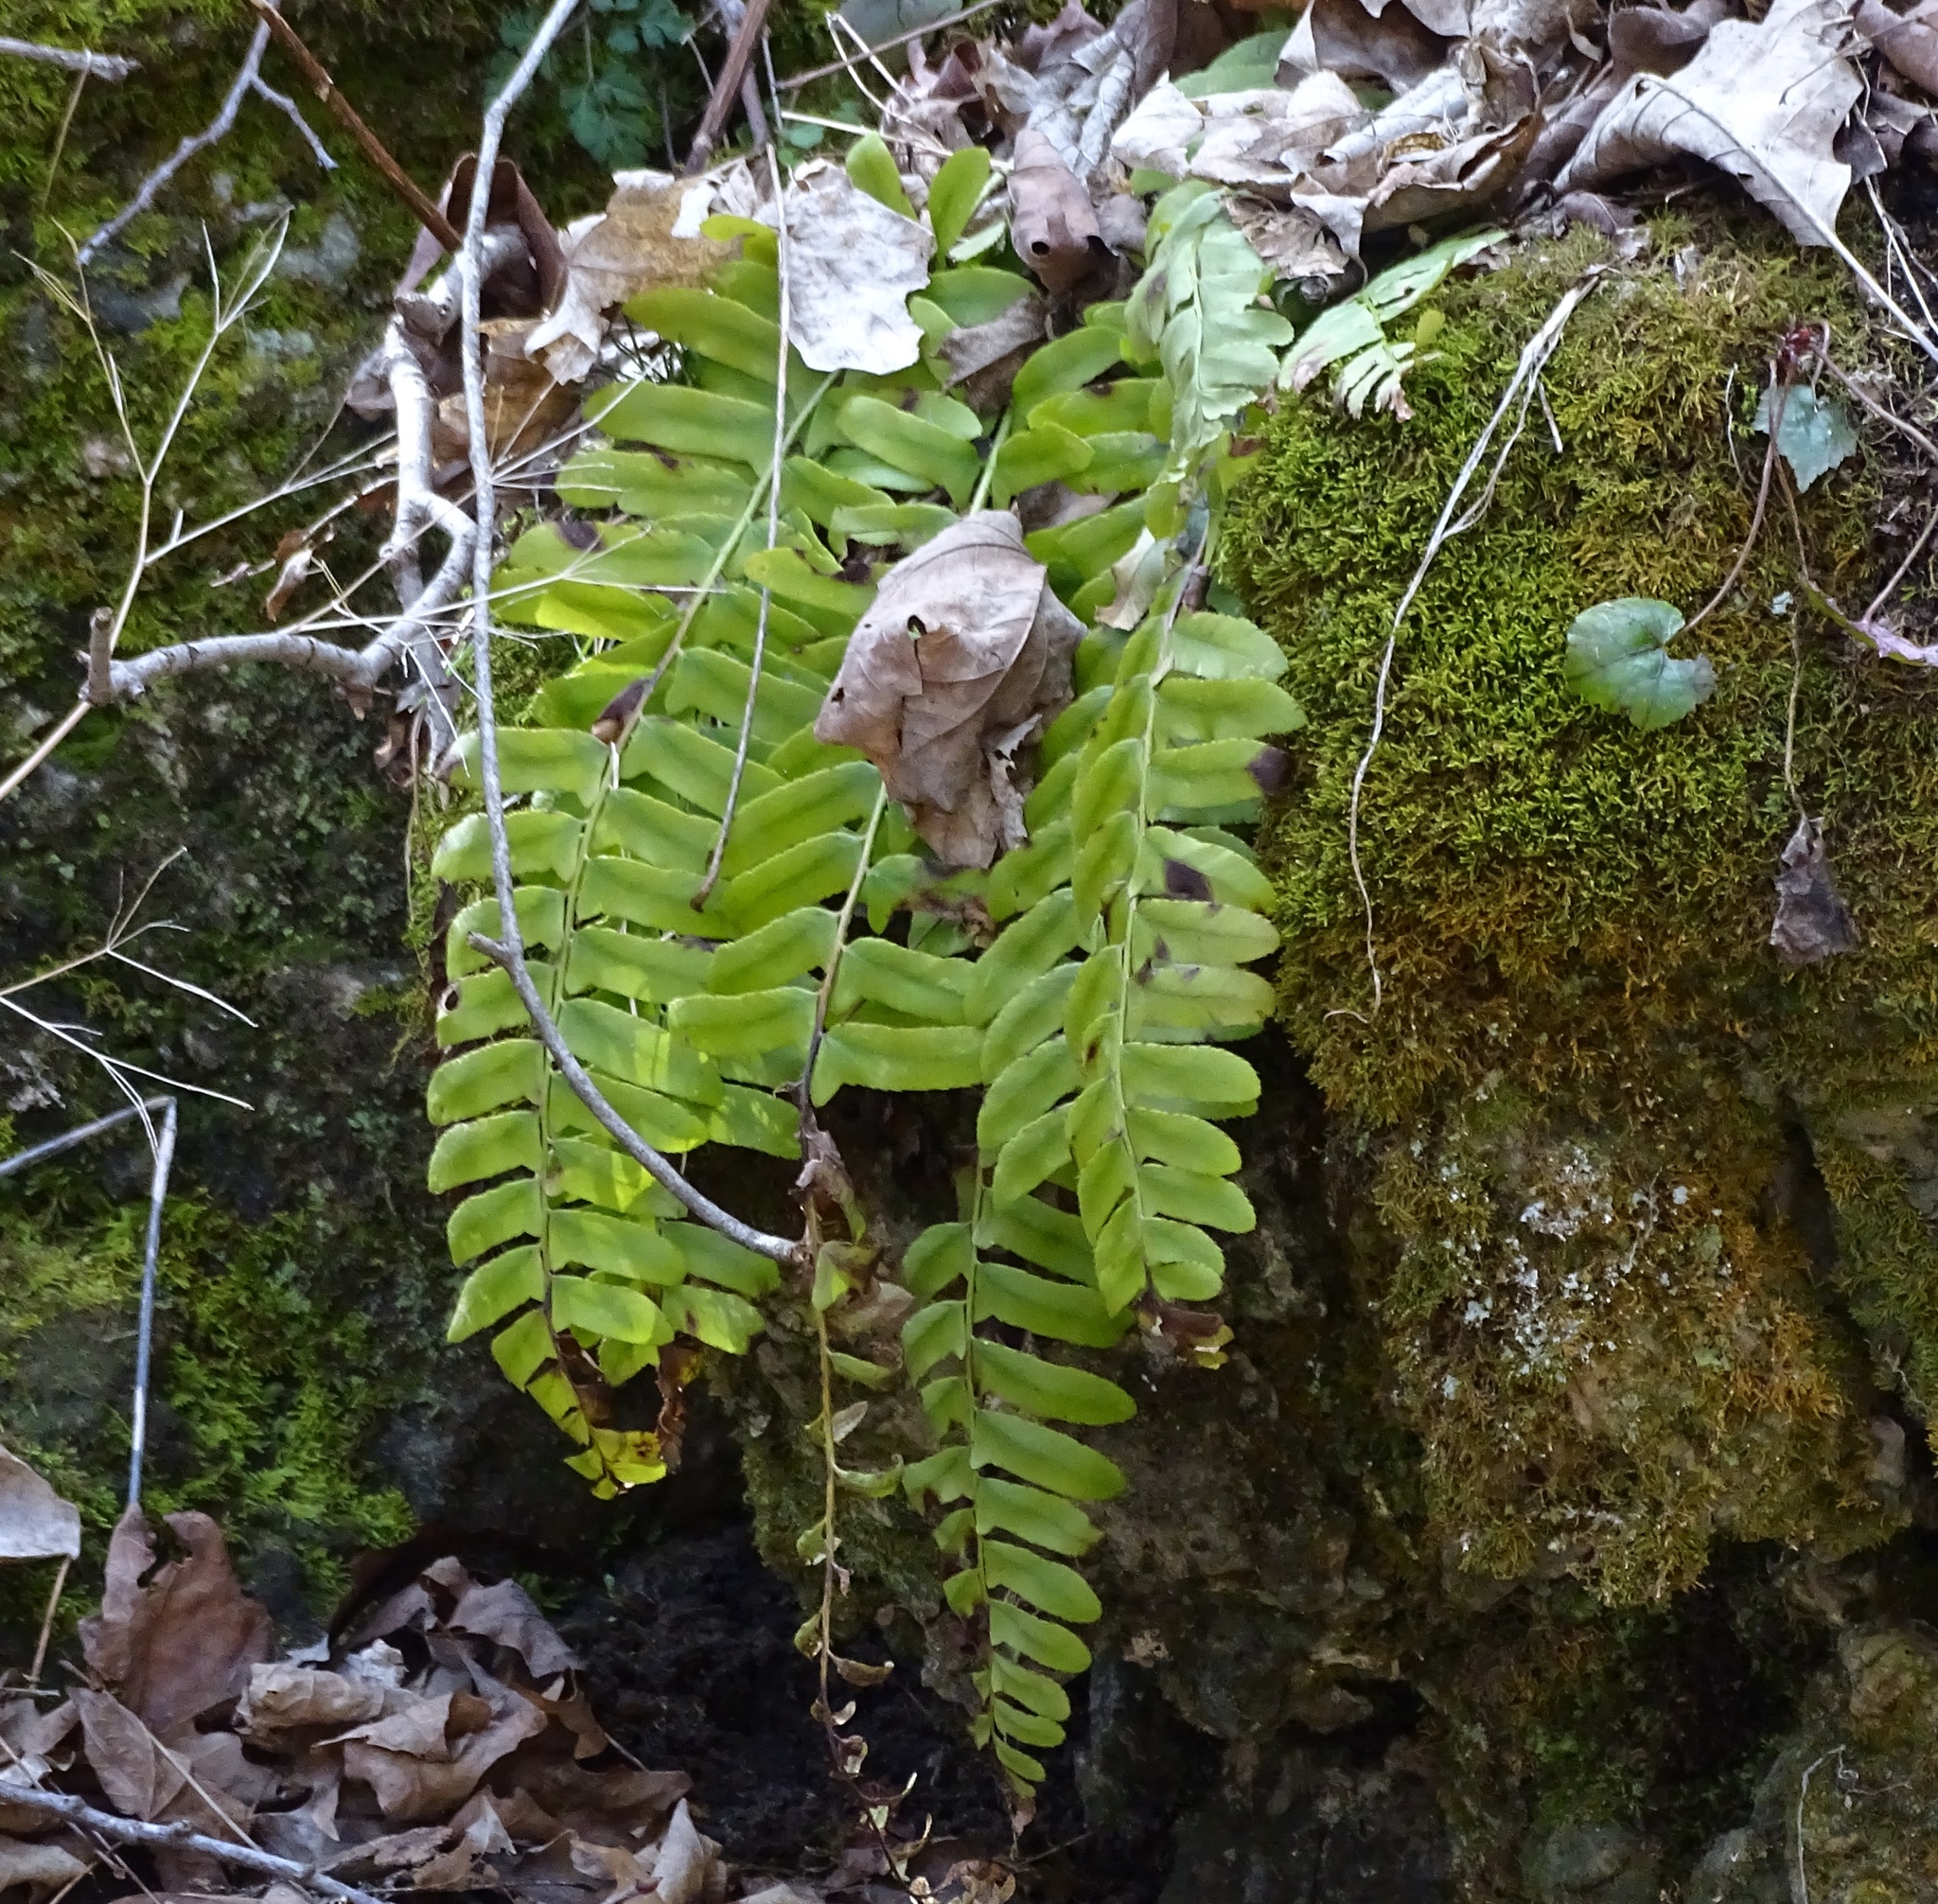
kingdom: Plantae
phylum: Tracheophyta
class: Polypodiopsida
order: Polypodiales
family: Dryopteridaceae
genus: Polystichum
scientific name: Polystichum acrostichoides
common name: Christmas fern
